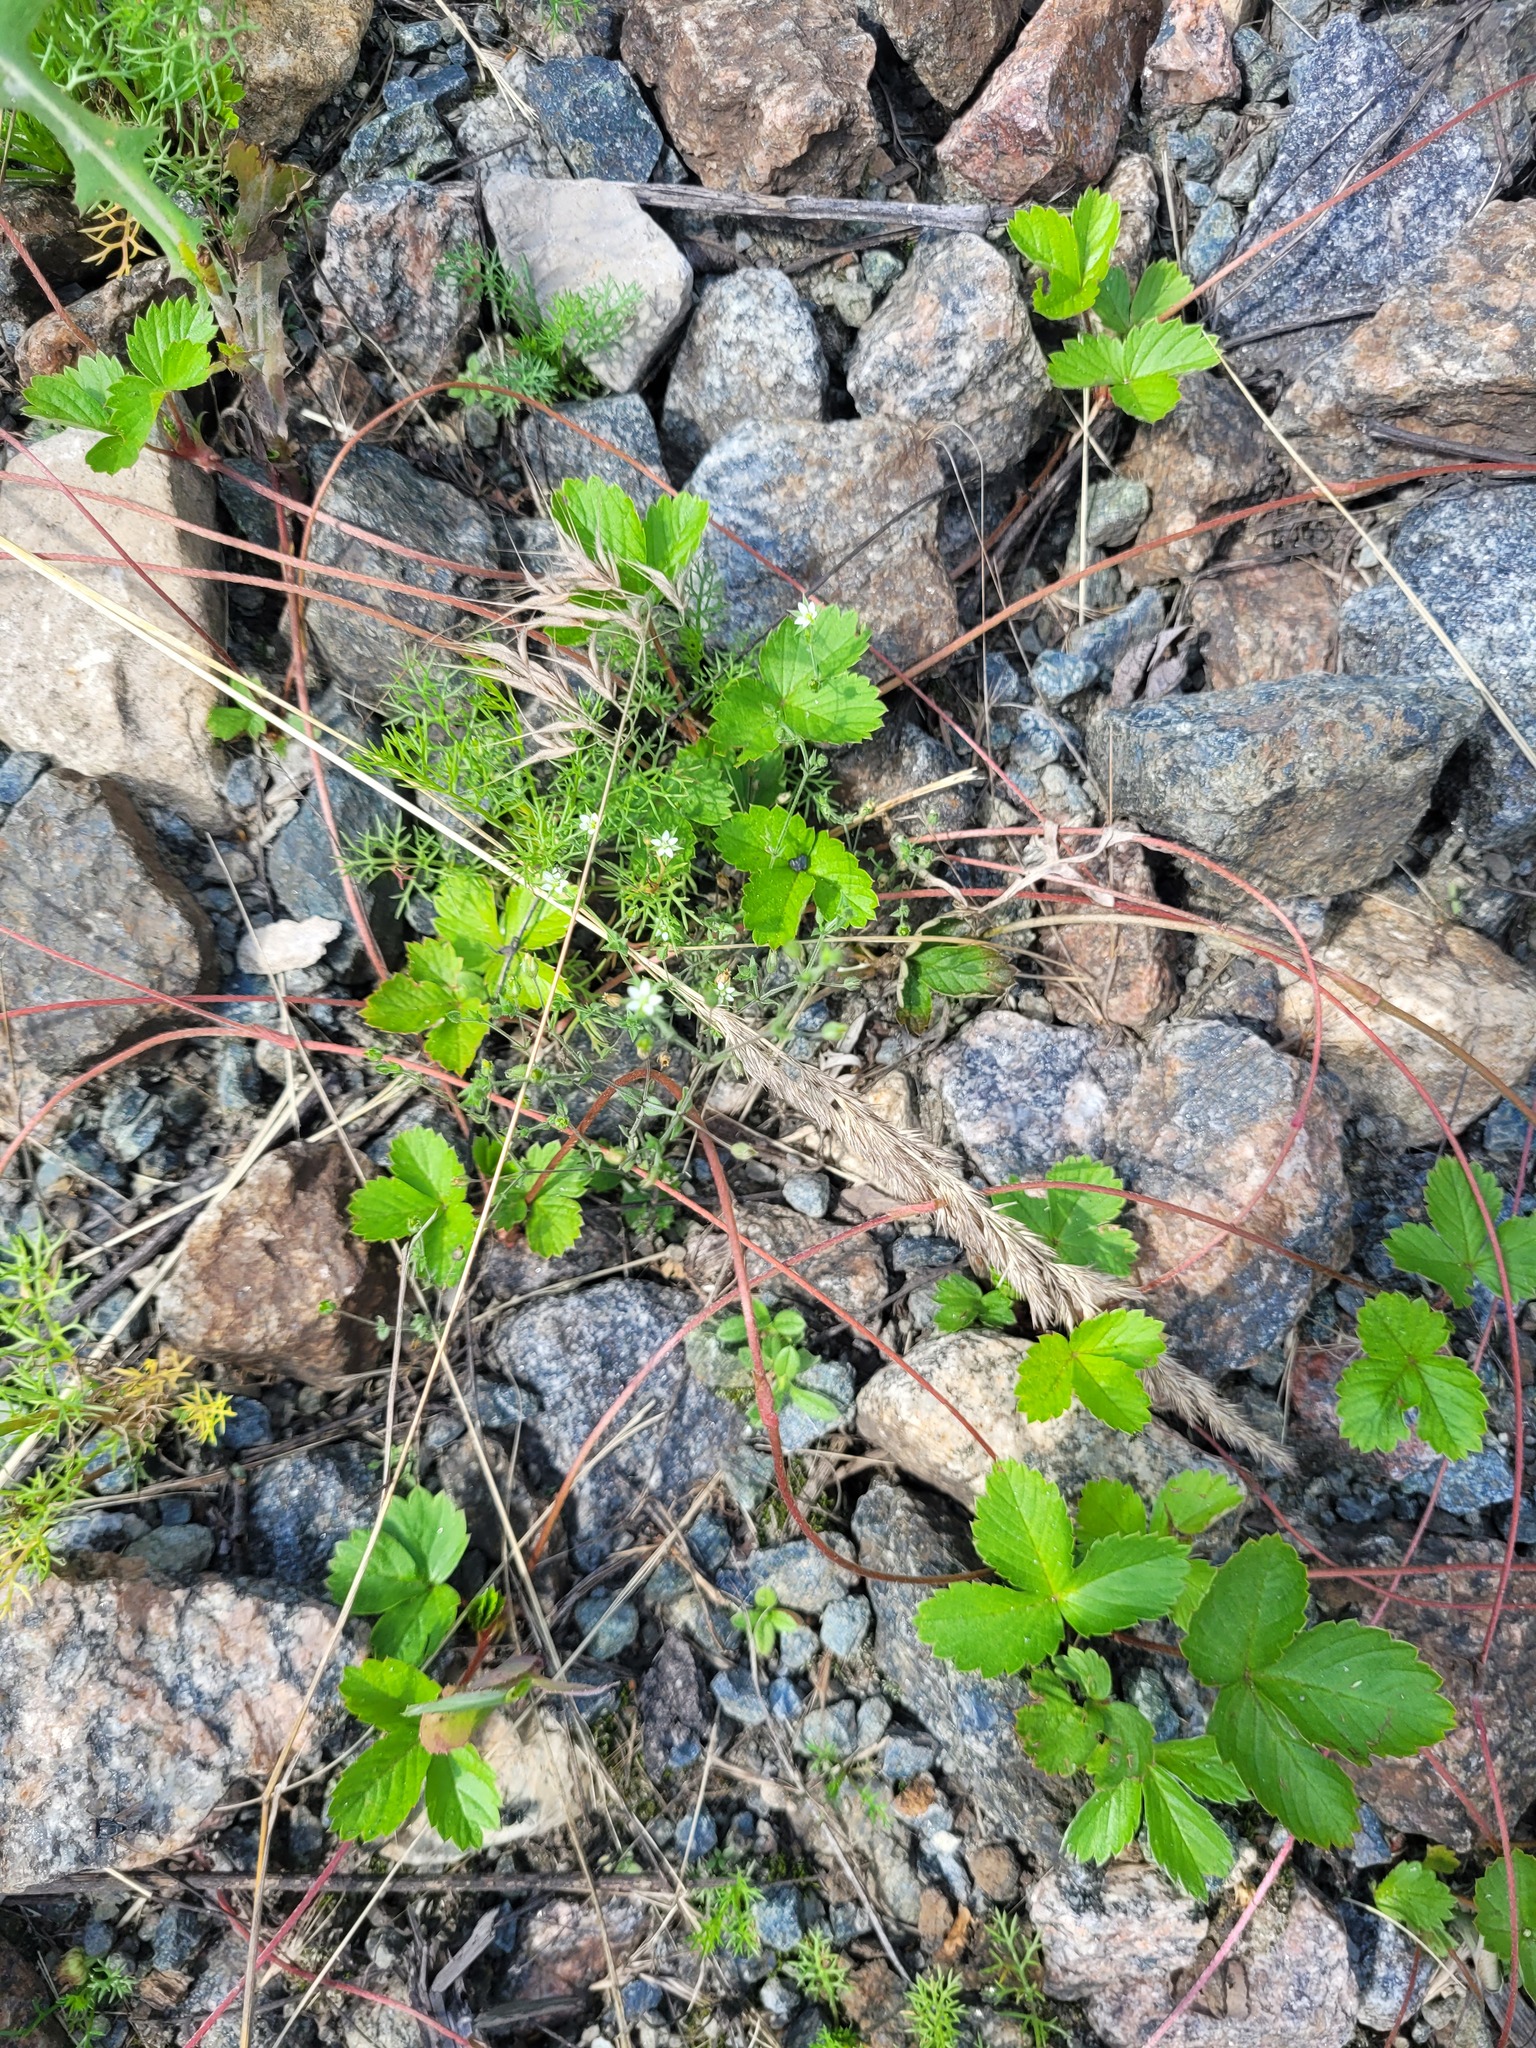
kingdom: Plantae
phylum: Tracheophyta
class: Magnoliopsida
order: Caryophyllales
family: Caryophyllaceae
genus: Arenaria
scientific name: Arenaria serpyllifolia
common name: Thyme-leaved sandwort
